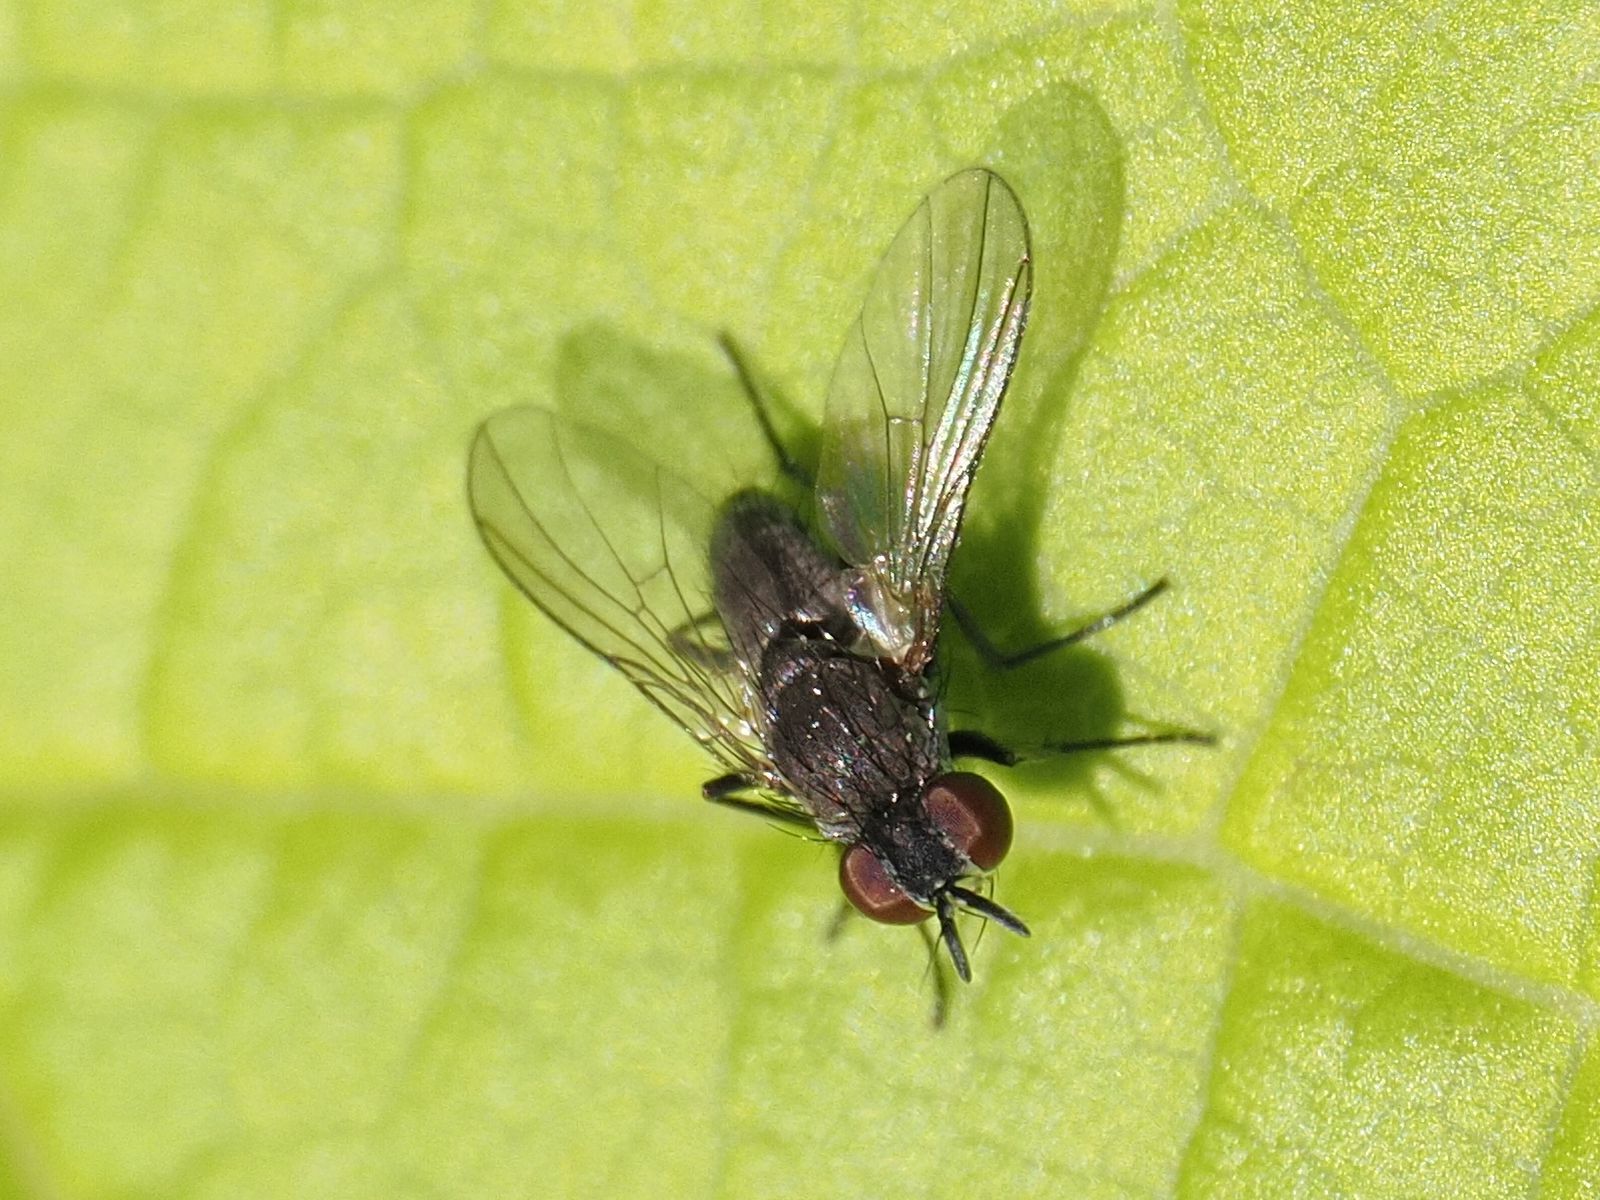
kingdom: Animalia
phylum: Arthropoda
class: Insecta
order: Diptera
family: Muscidae
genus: Coenosia
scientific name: Coenosia agromyzina
